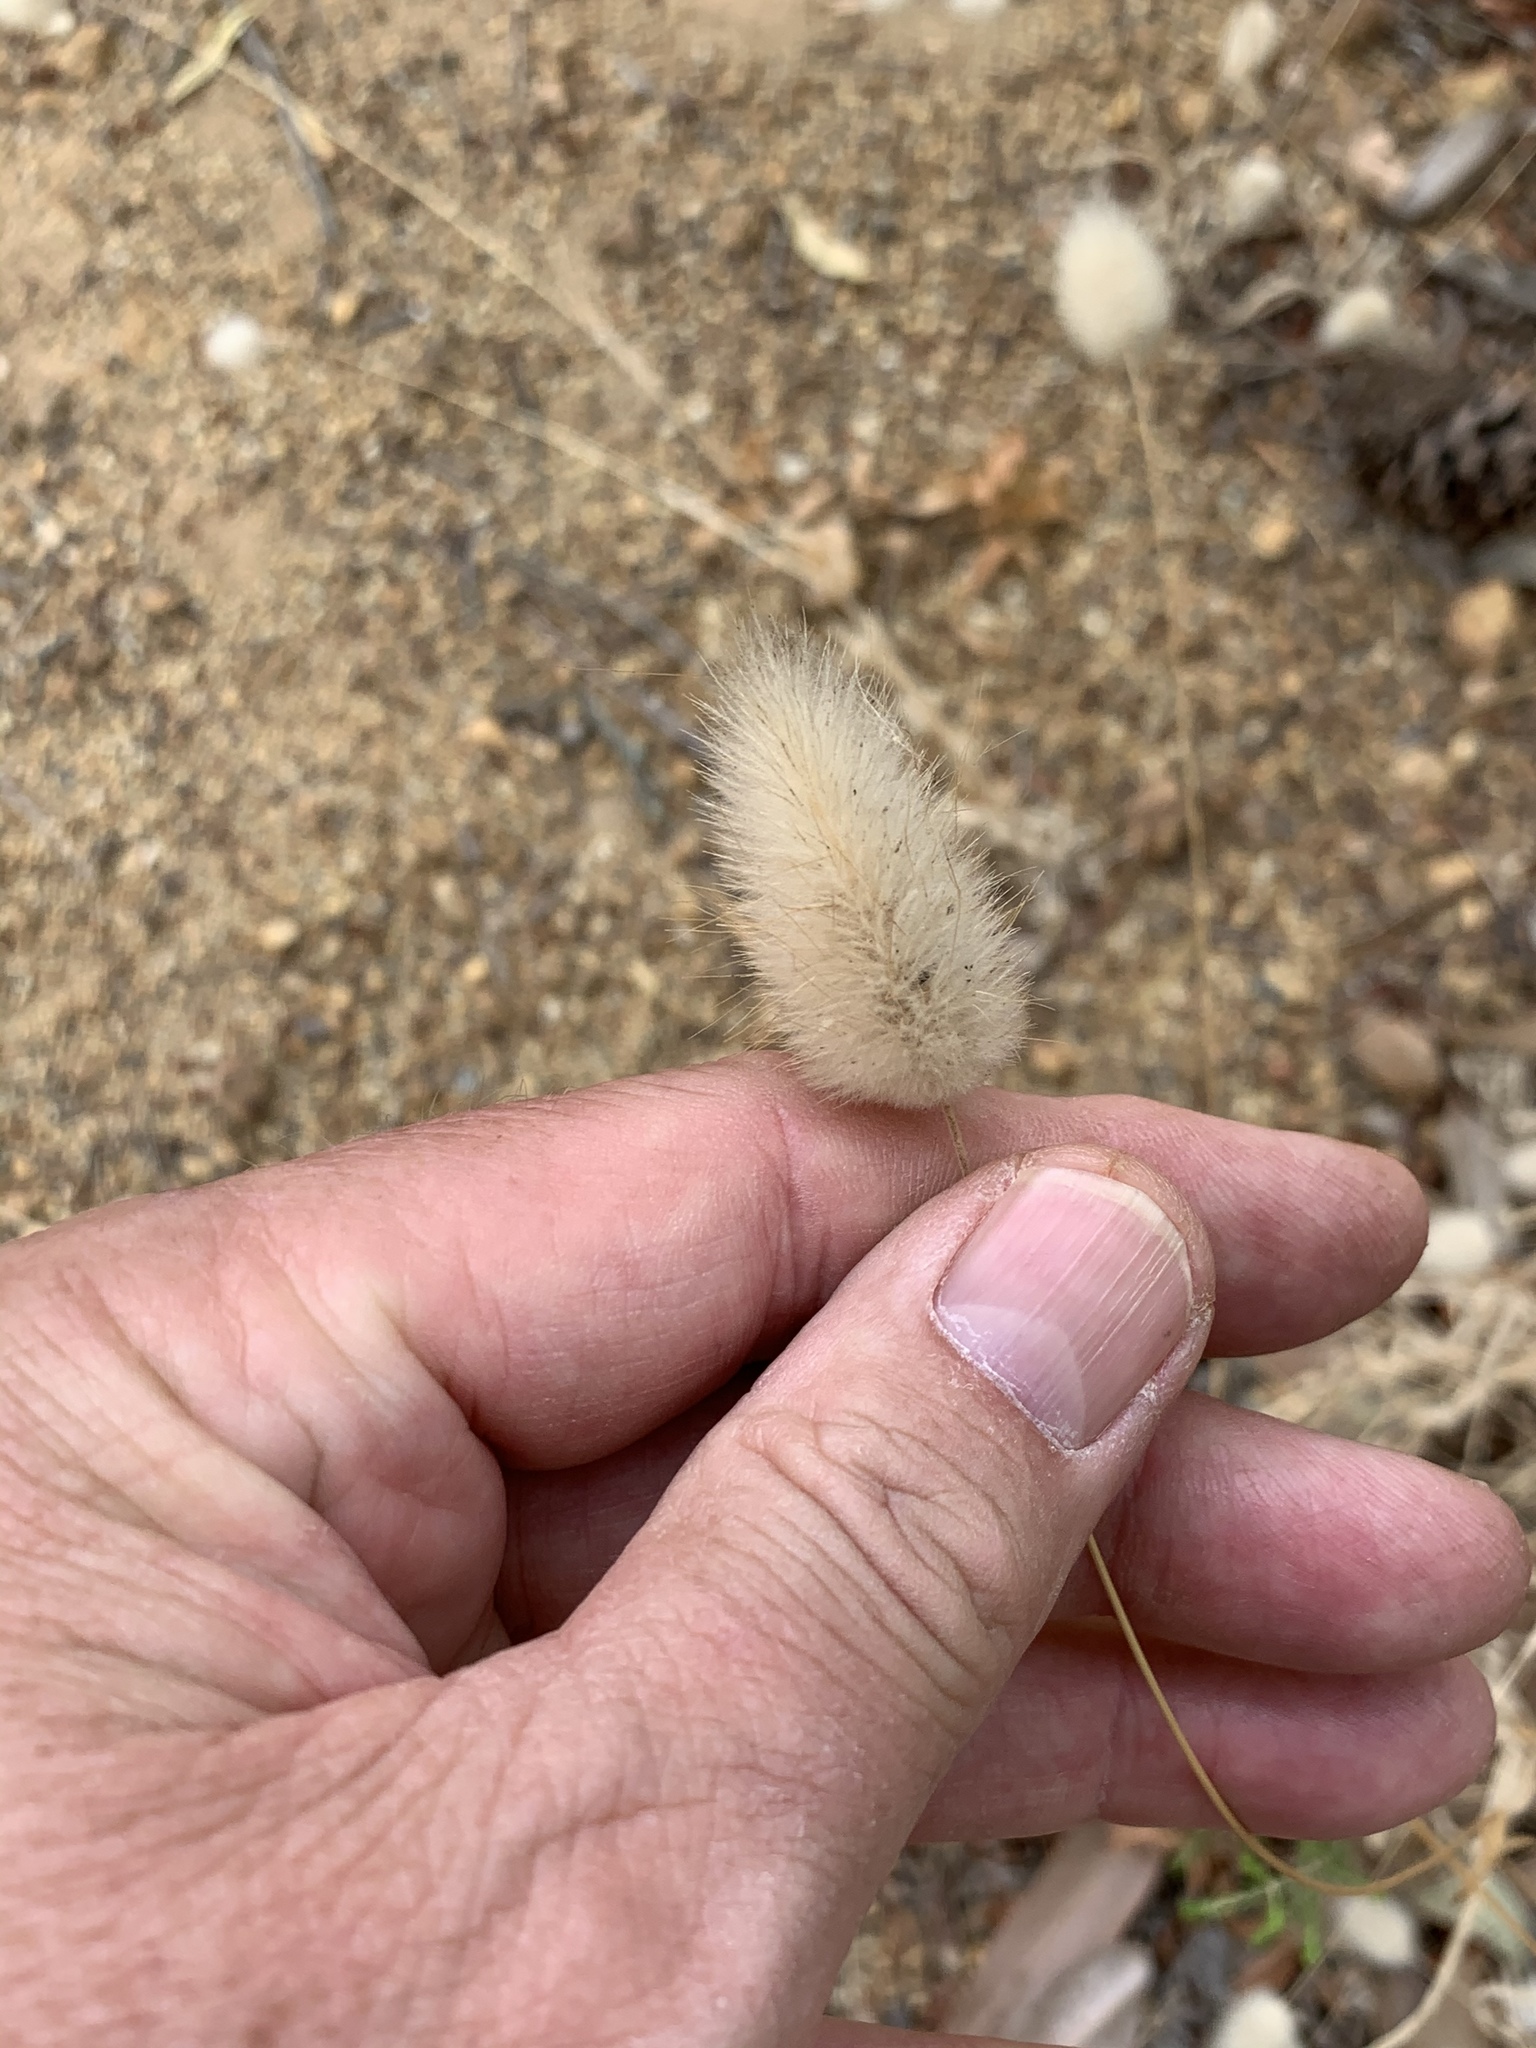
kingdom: Plantae
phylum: Tracheophyta
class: Liliopsida
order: Poales
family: Poaceae
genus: Lagurus
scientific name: Lagurus ovatus
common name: Hare's-tail
